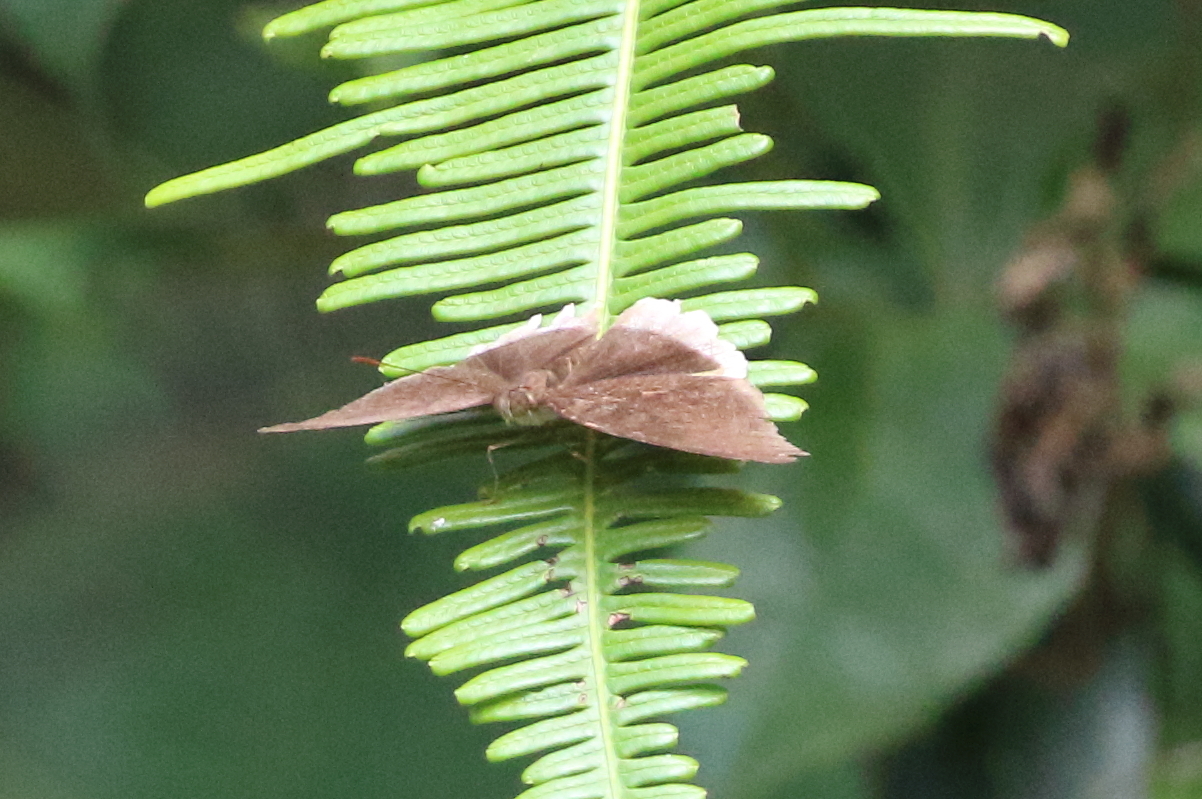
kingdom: Animalia
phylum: Arthropoda
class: Insecta
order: Lepidoptera
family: Nymphalidae
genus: Tanaecia
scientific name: Tanaecia lepidea
